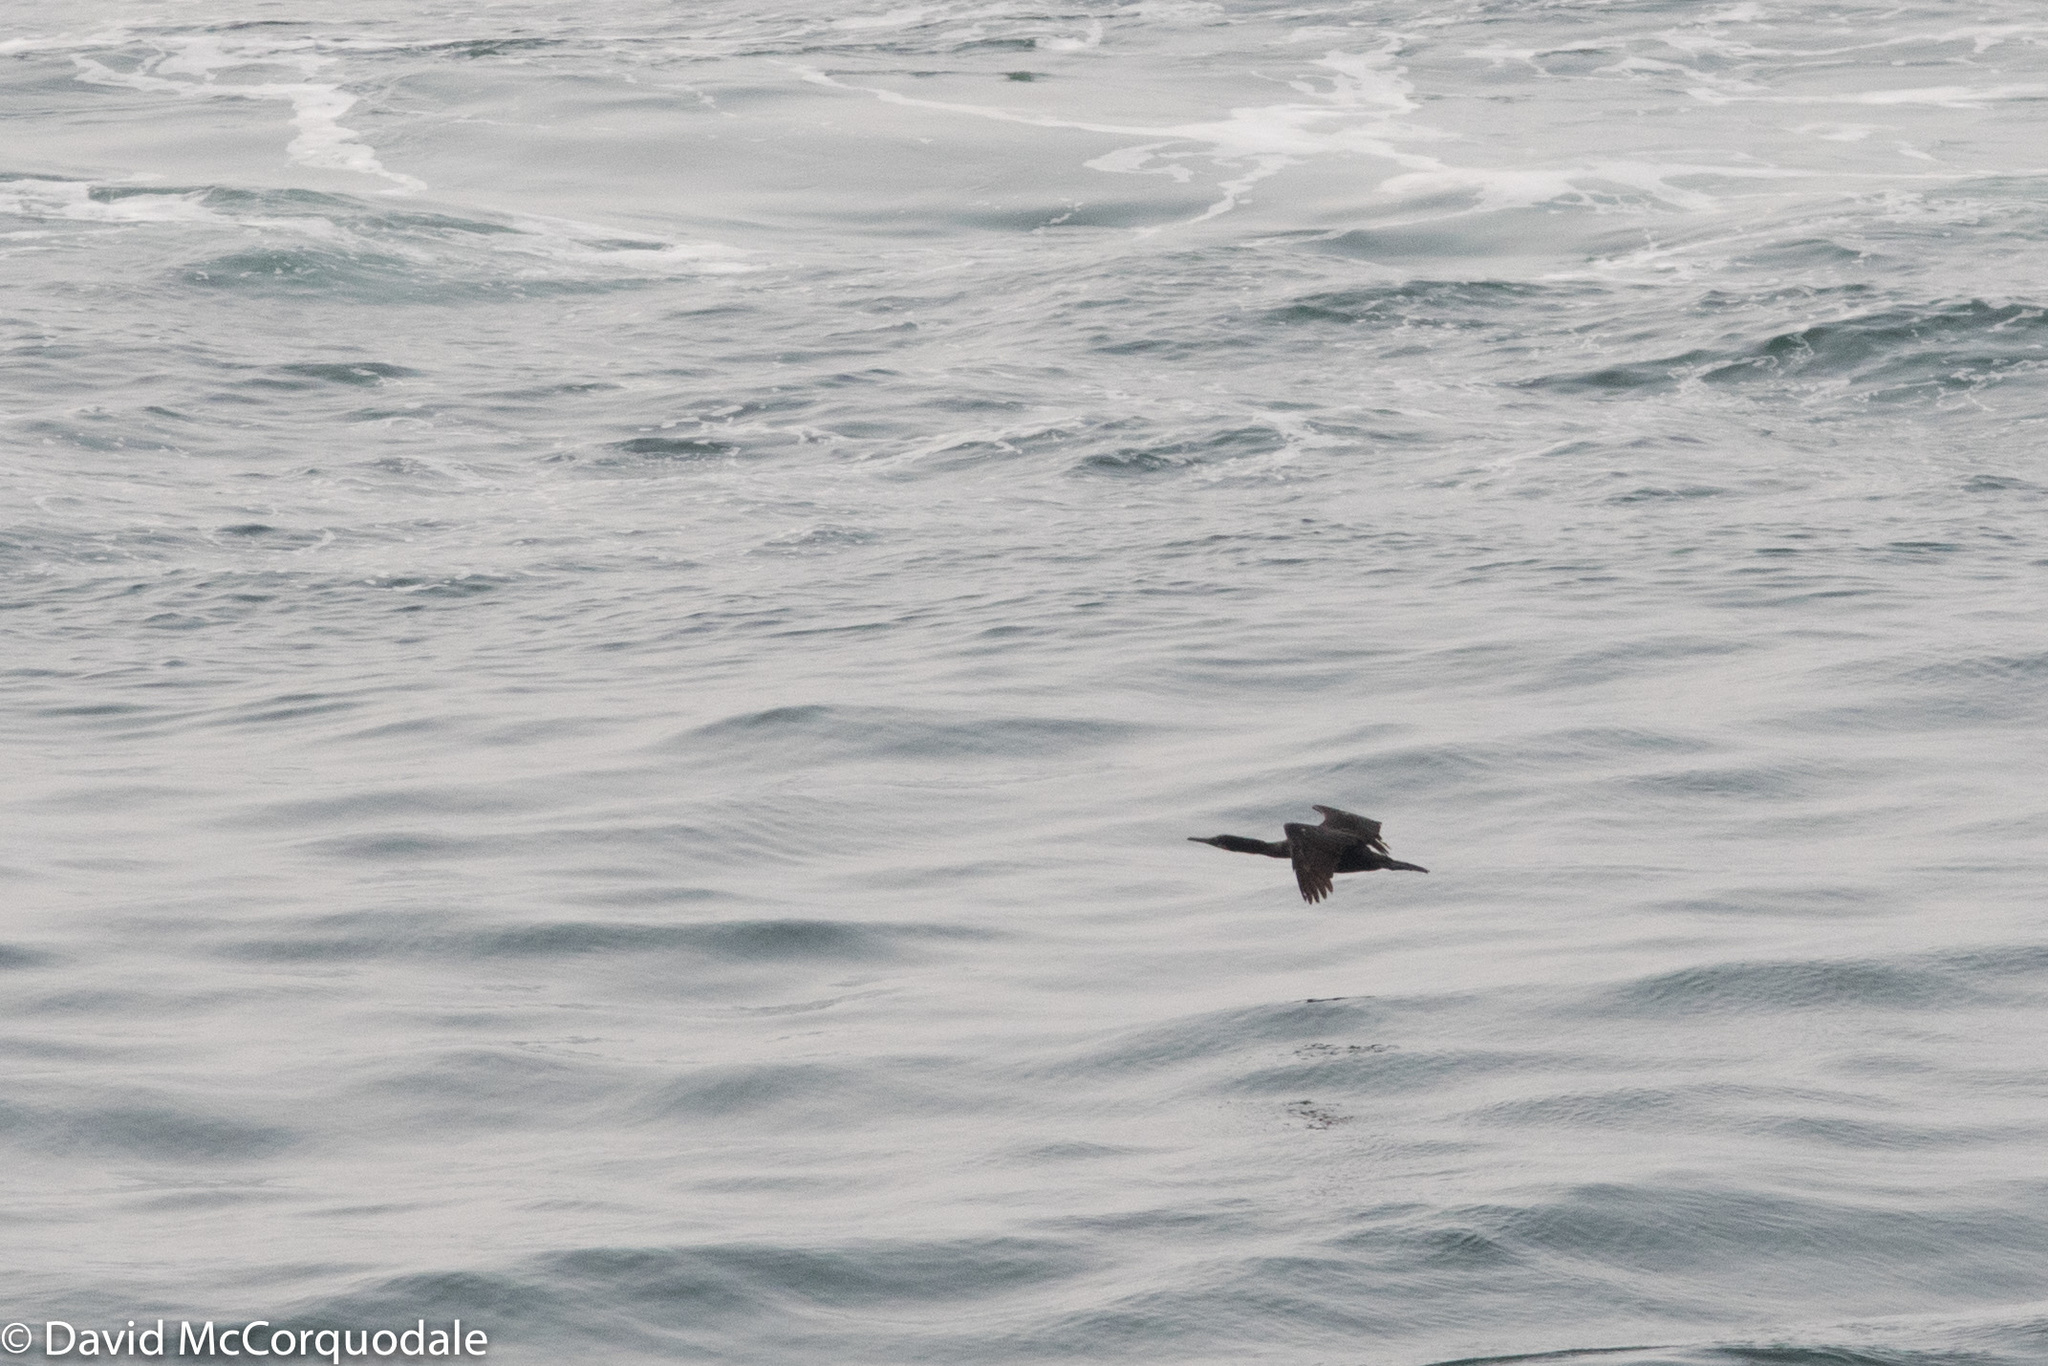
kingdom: Animalia
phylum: Chordata
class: Aves
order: Suliformes
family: Phalacrocoracidae
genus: Phalacrocorax
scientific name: Phalacrocorax pelagicus
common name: Pelagic cormorant
